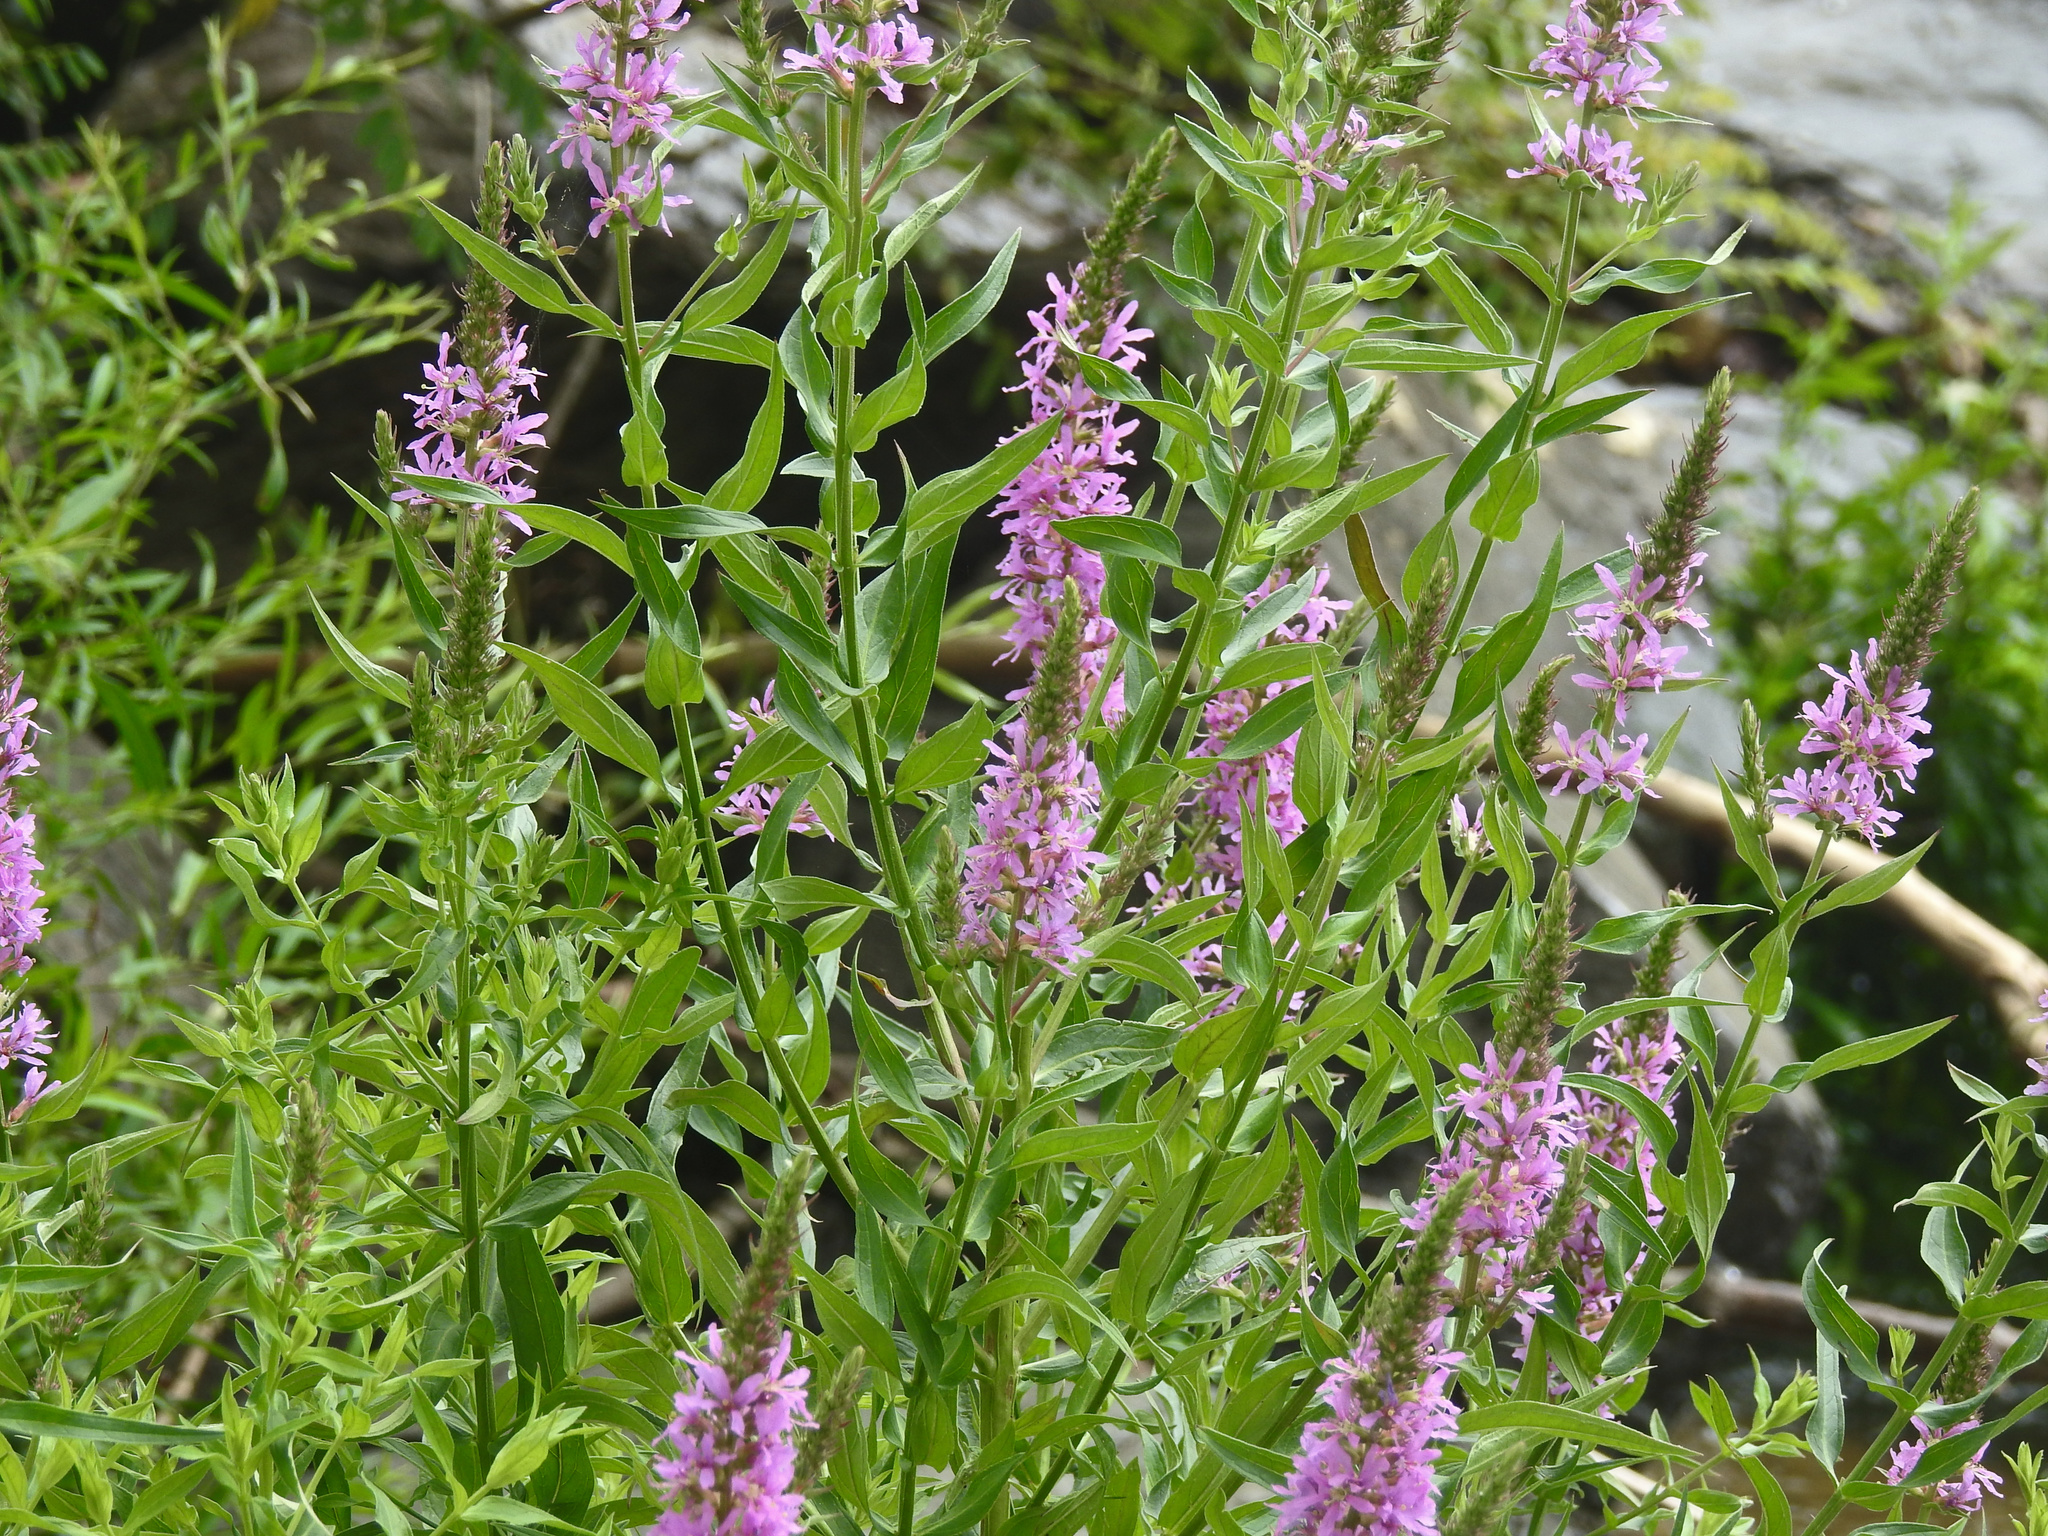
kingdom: Plantae
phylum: Tracheophyta
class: Magnoliopsida
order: Myrtales
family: Lythraceae
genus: Lythrum
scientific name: Lythrum salicaria
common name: Purple loosestrife
